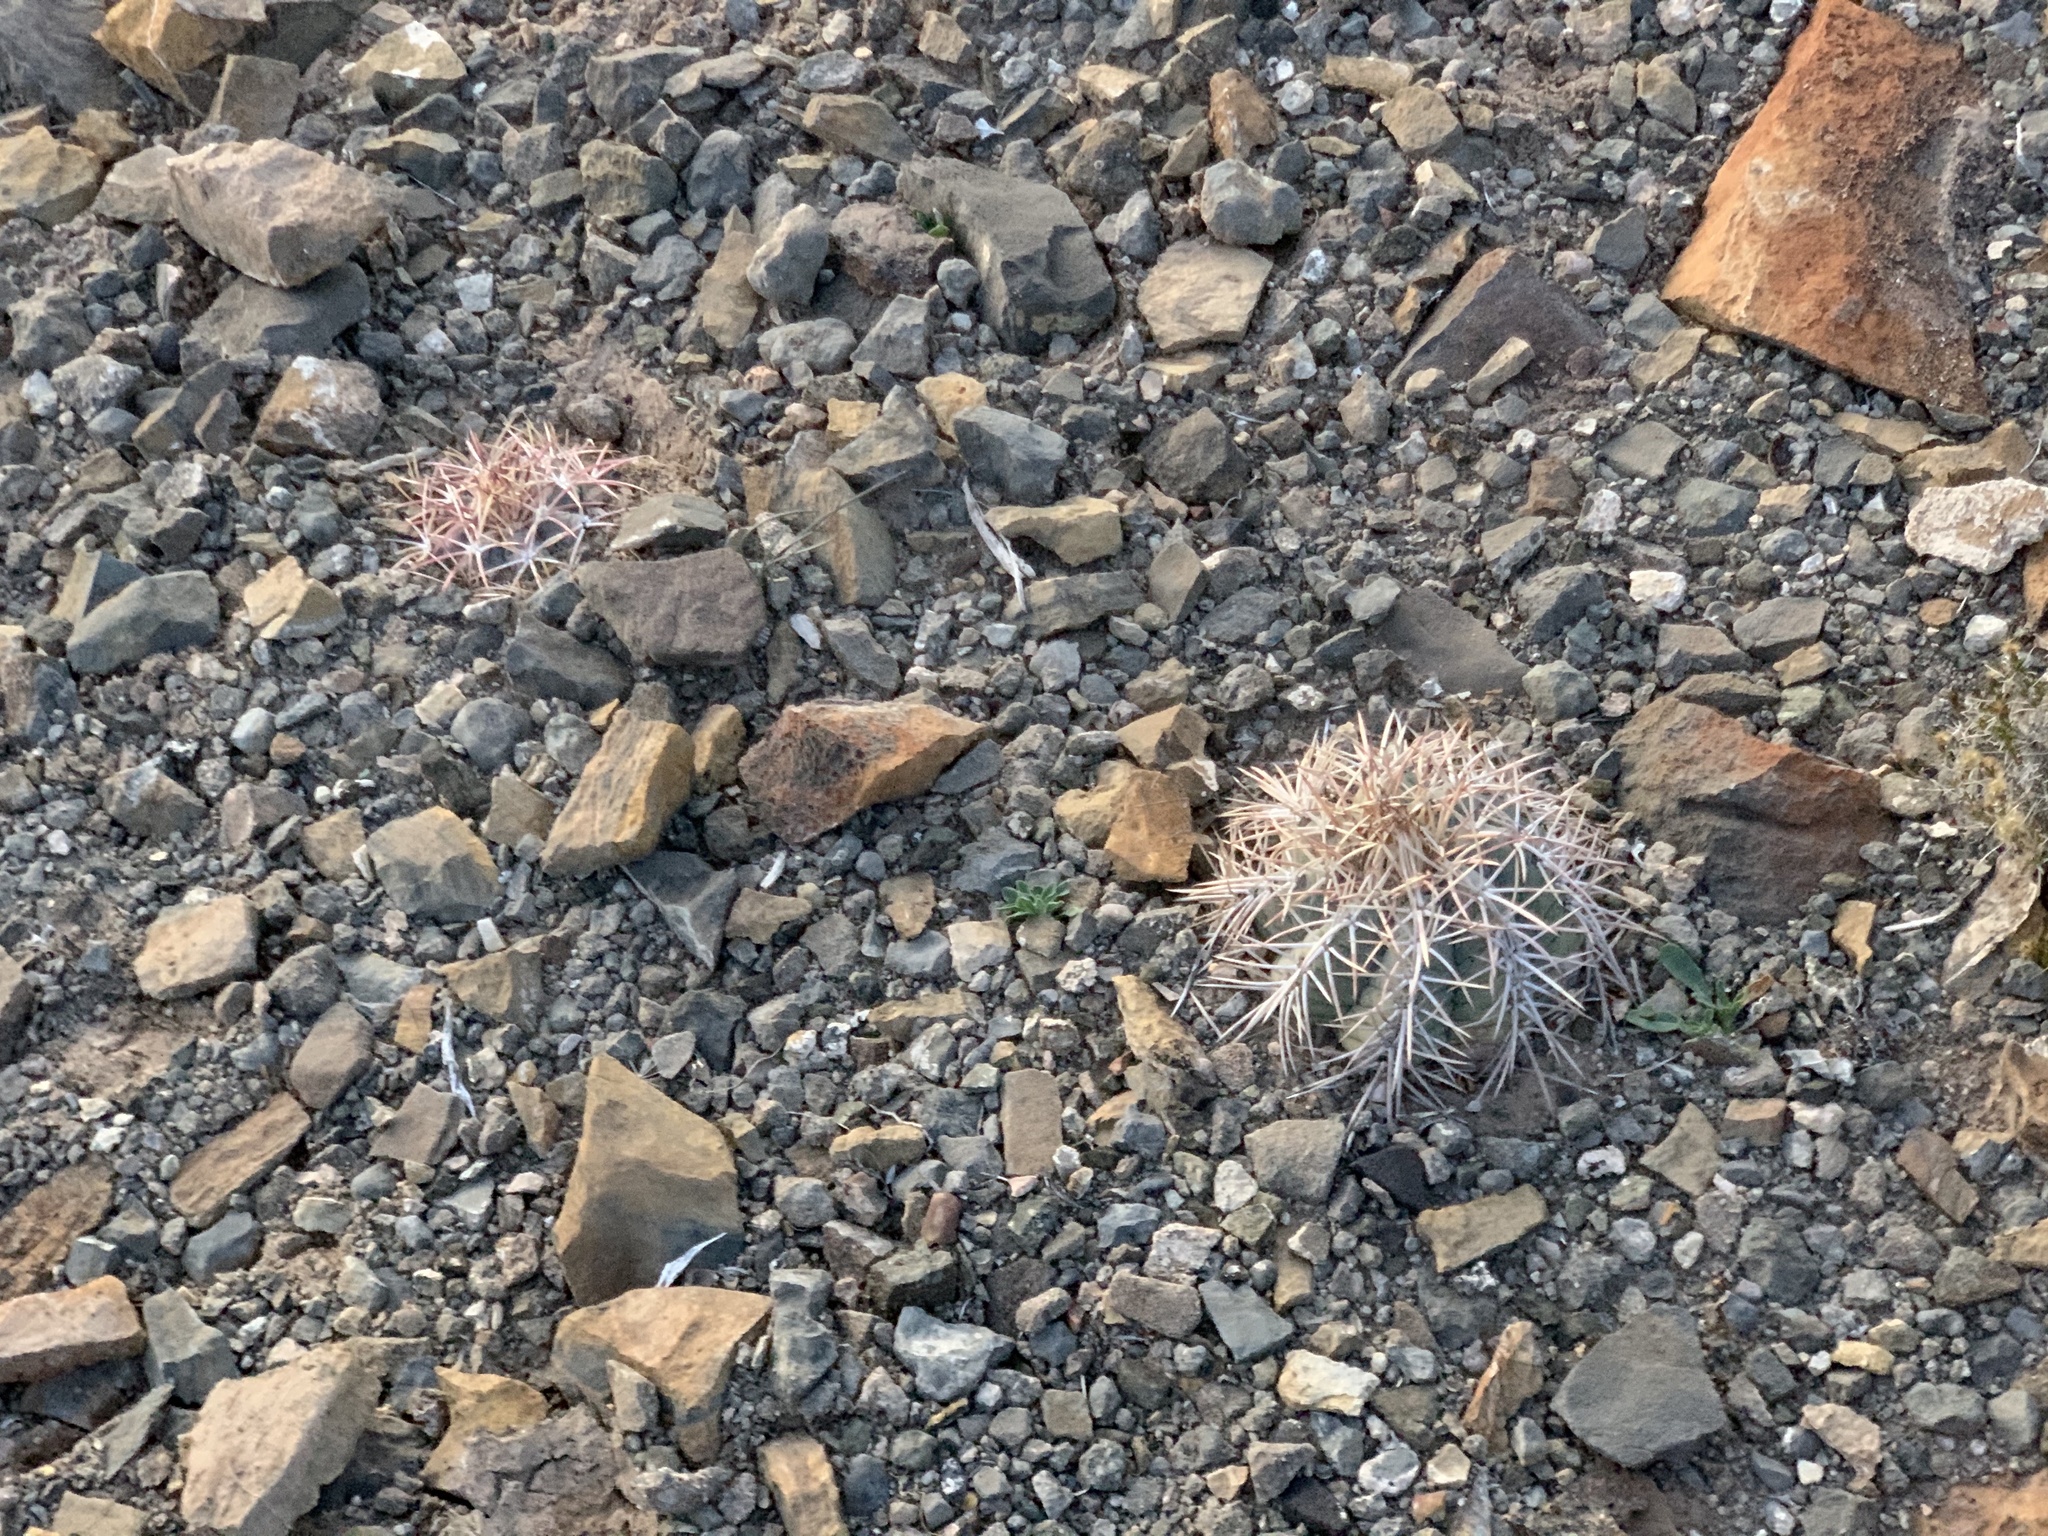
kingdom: Plantae
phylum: Tracheophyta
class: Magnoliopsida
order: Caryophyllales
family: Cactaceae
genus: Echinocactus
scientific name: Echinocactus horizonthalonius
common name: Devilshead
